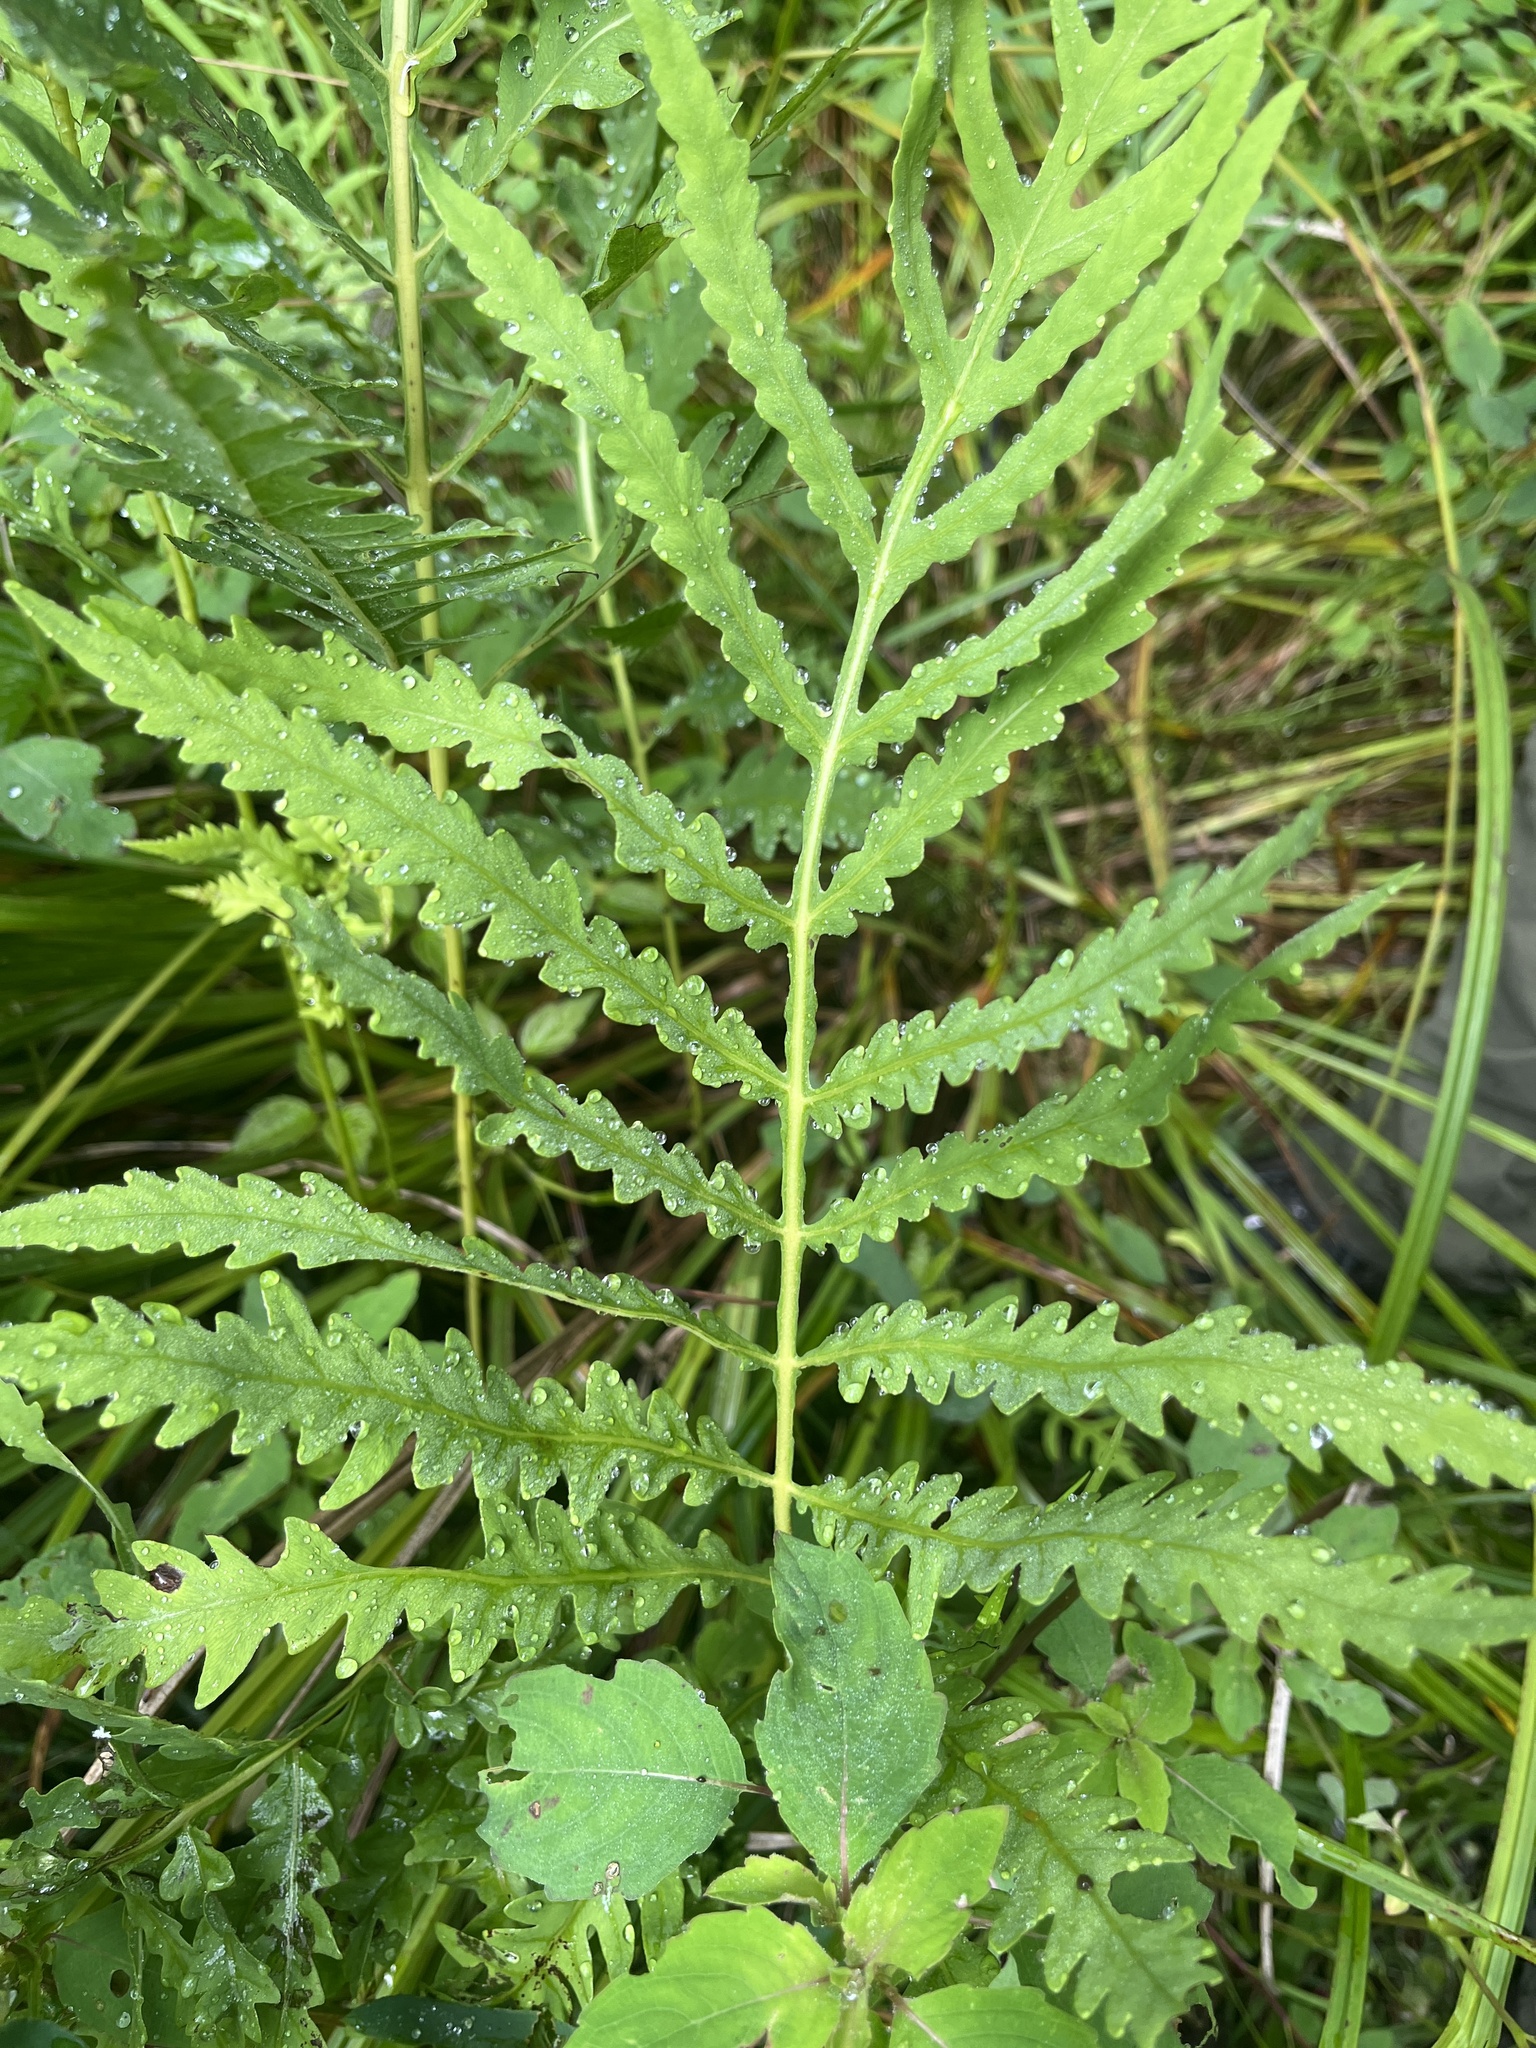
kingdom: Plantae
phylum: Tracheophyta
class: Polypodiopsida
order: Polypodiales
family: Onocleaceae
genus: Onoclea
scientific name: Onoclea sensibilis
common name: Sensitive fern
